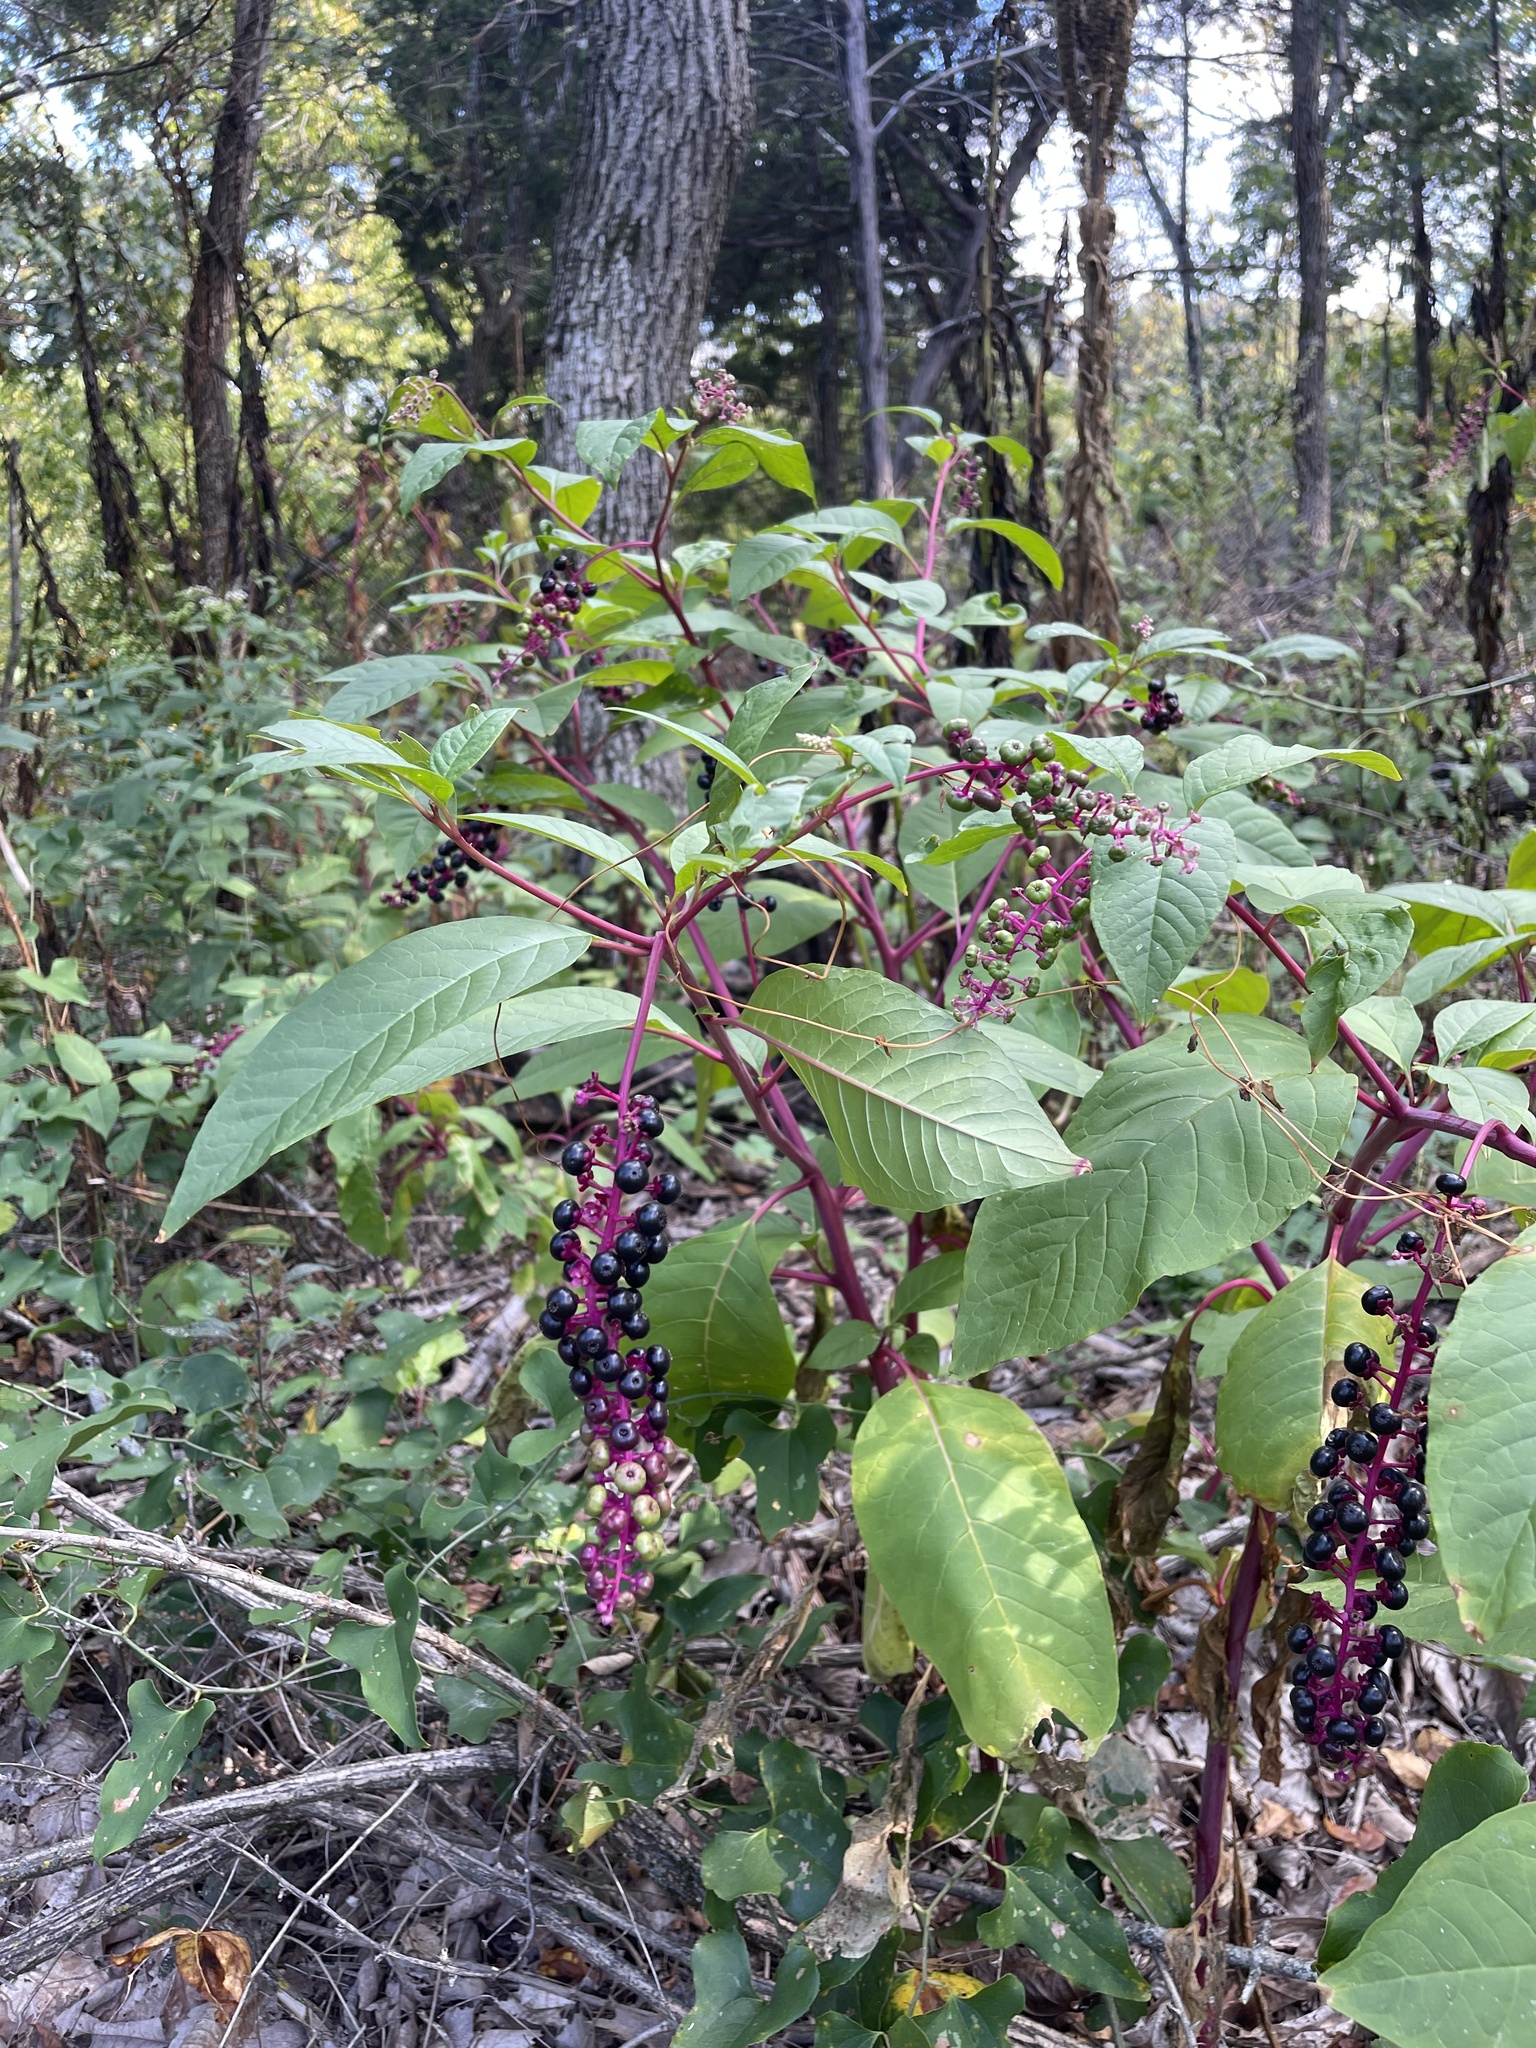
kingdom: Plantae
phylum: Tracheophyta
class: Magnoliopsida
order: Caryophyllales
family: Phytolaccaceae
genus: Phytolacca
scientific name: Phytolacca americana
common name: American pokeweed
